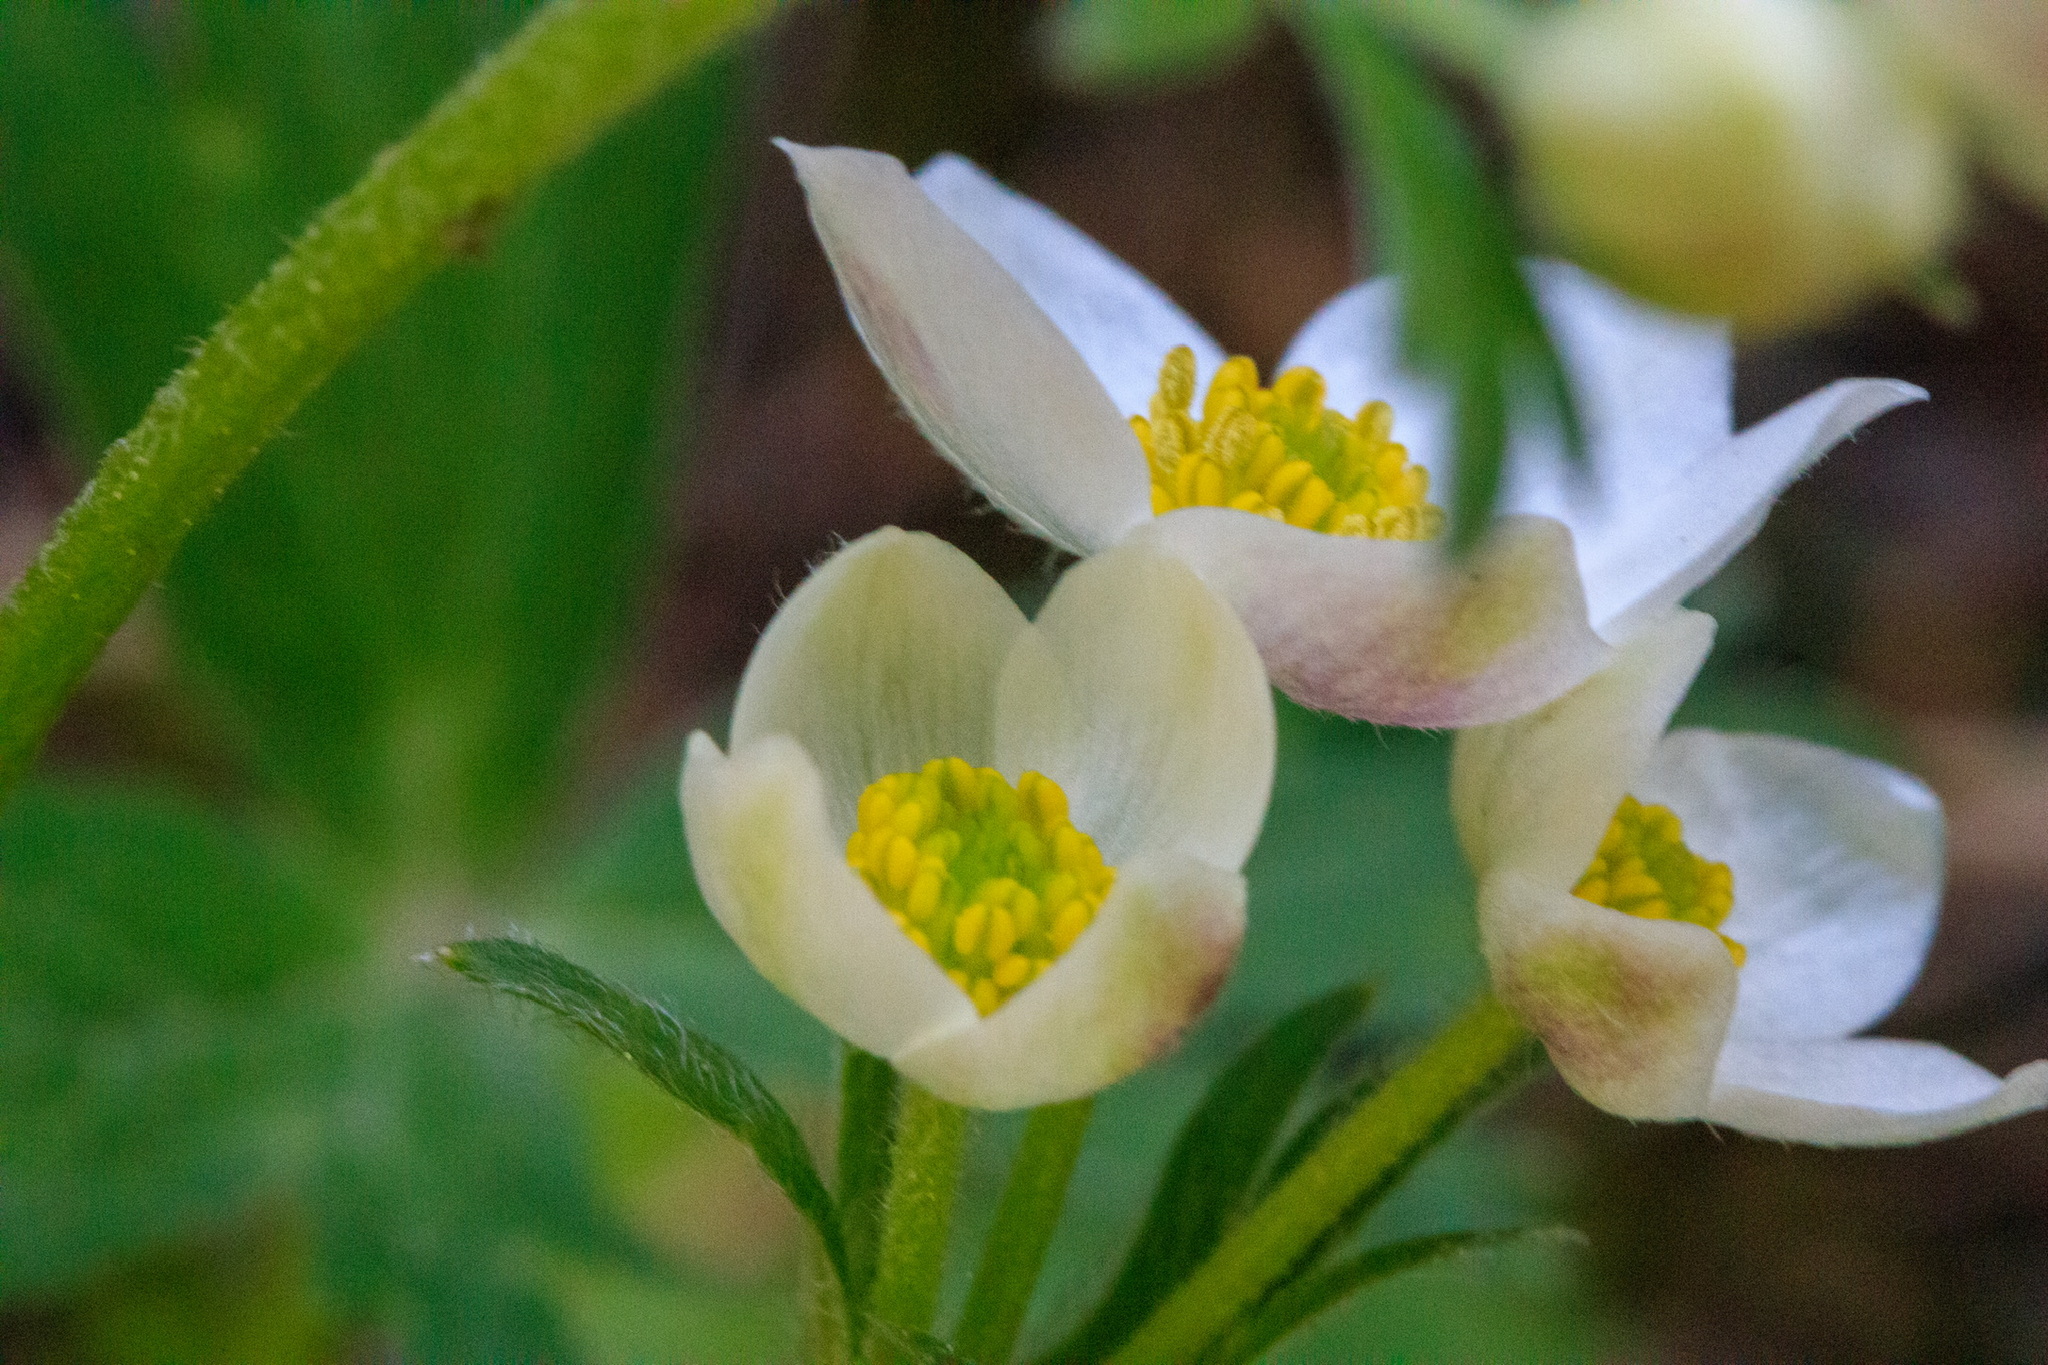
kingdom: Plantae
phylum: Tracheophyta
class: Magnoliopsida
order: Ranunculales
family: Ranunculaceae
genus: Anemonastrum
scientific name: Anemonastrum protractum
